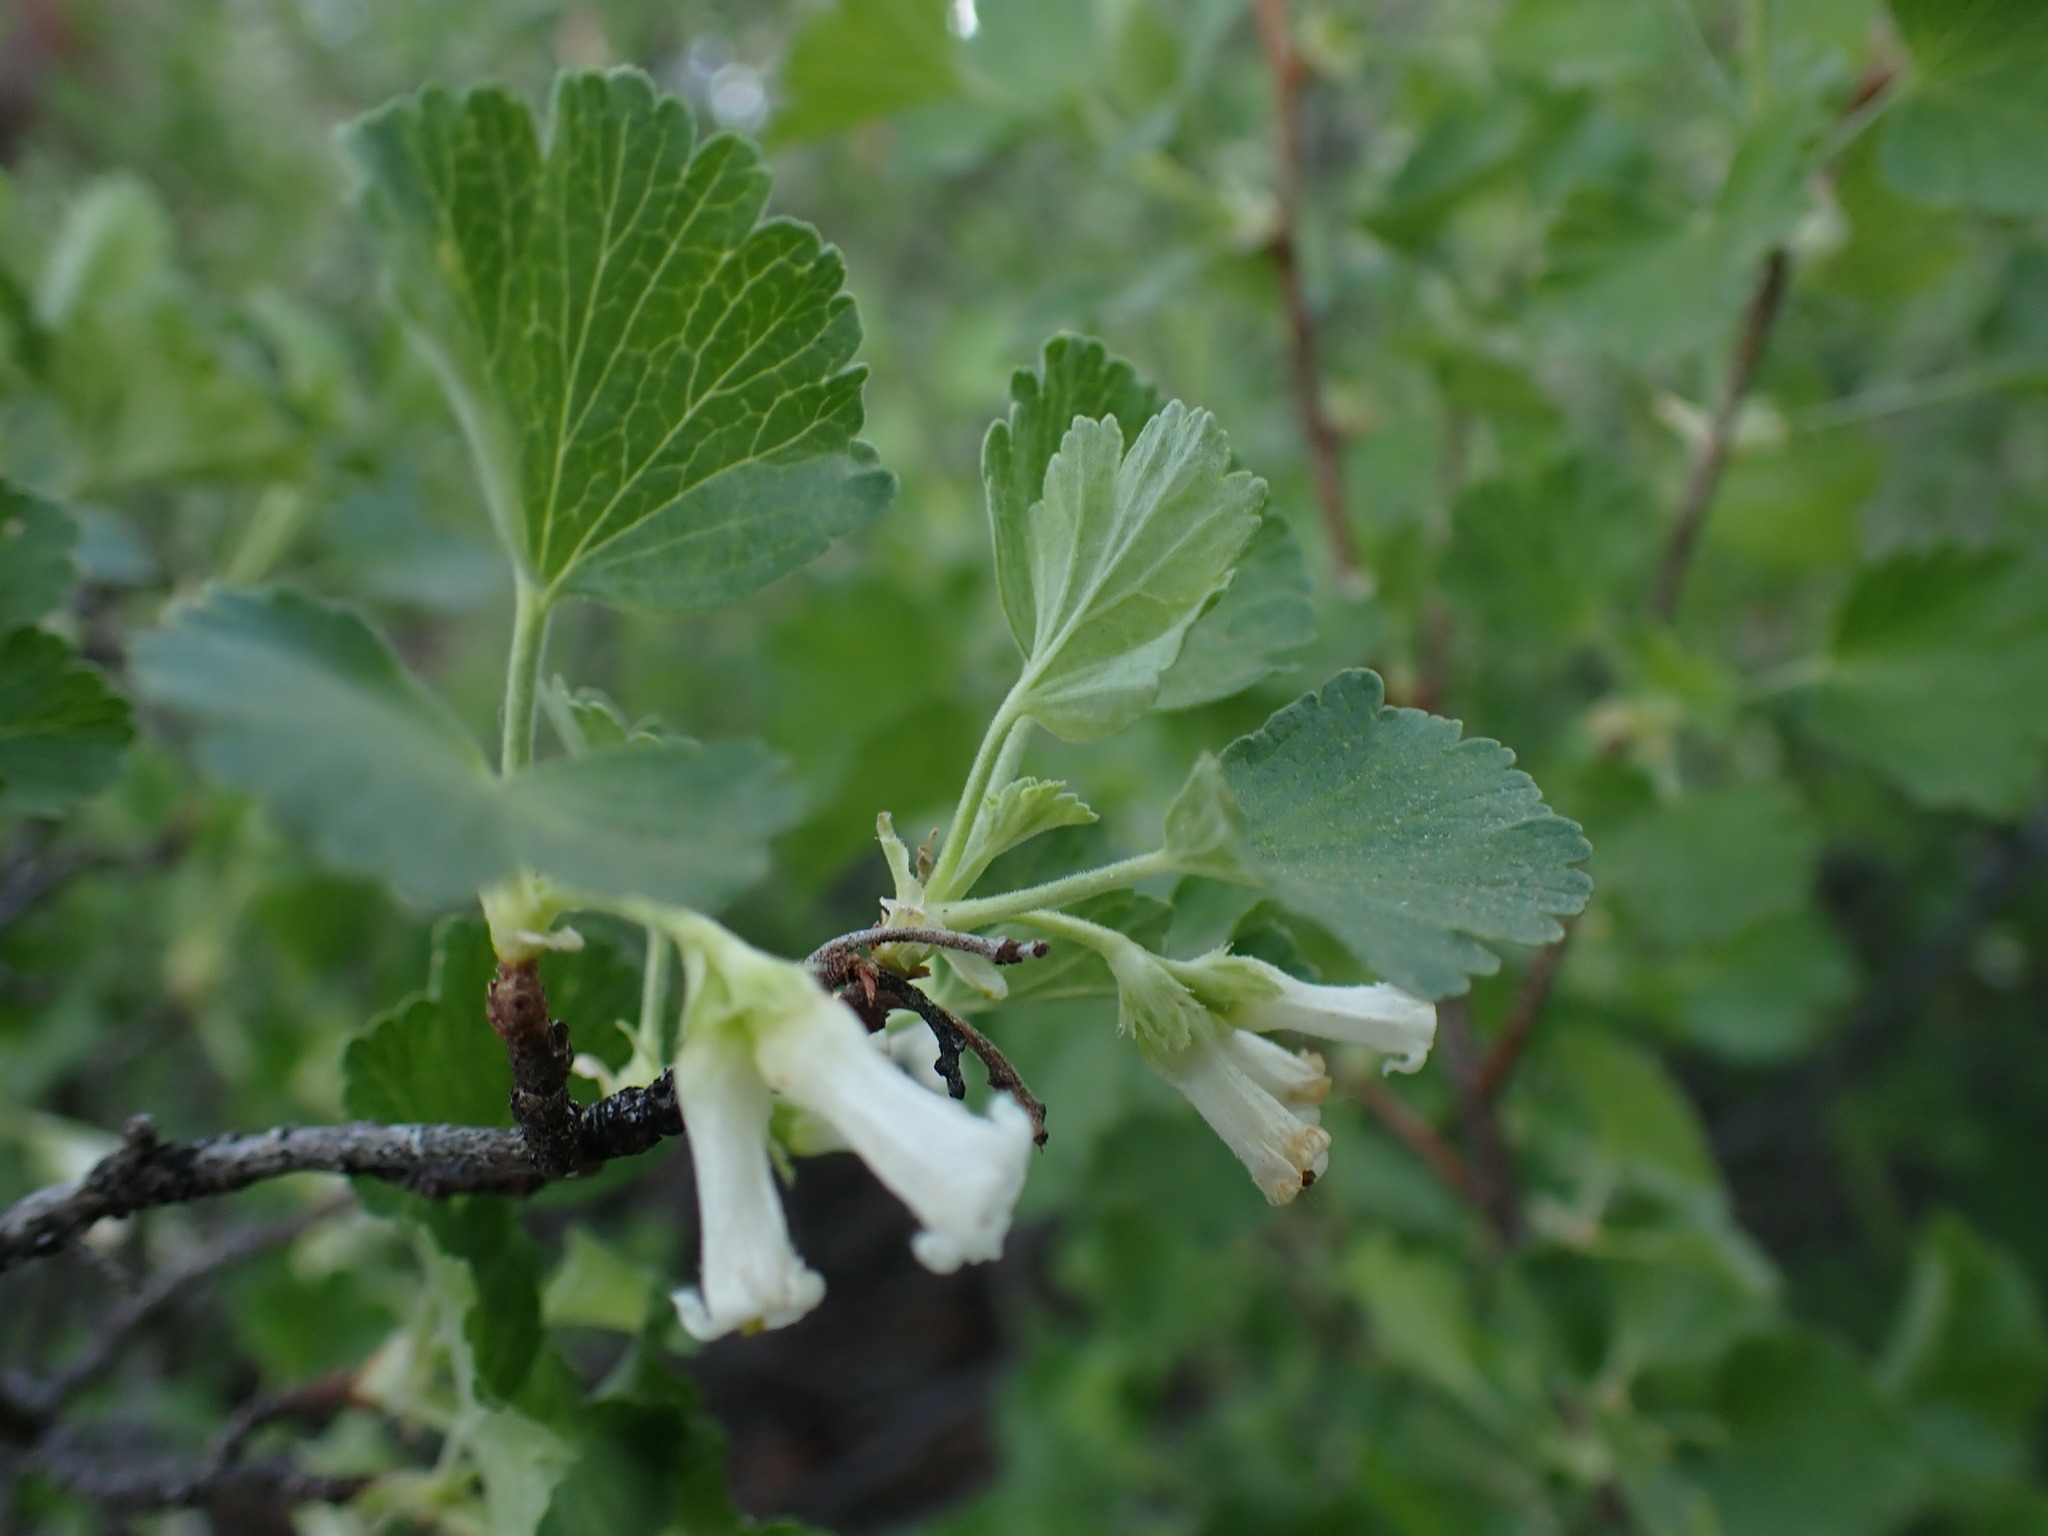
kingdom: Plantae
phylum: Tracheophyta
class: Magnoliopsida
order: Saxifragales
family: Grossulariaceae
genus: Ribes
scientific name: Ribes cereum
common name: Wax currant
